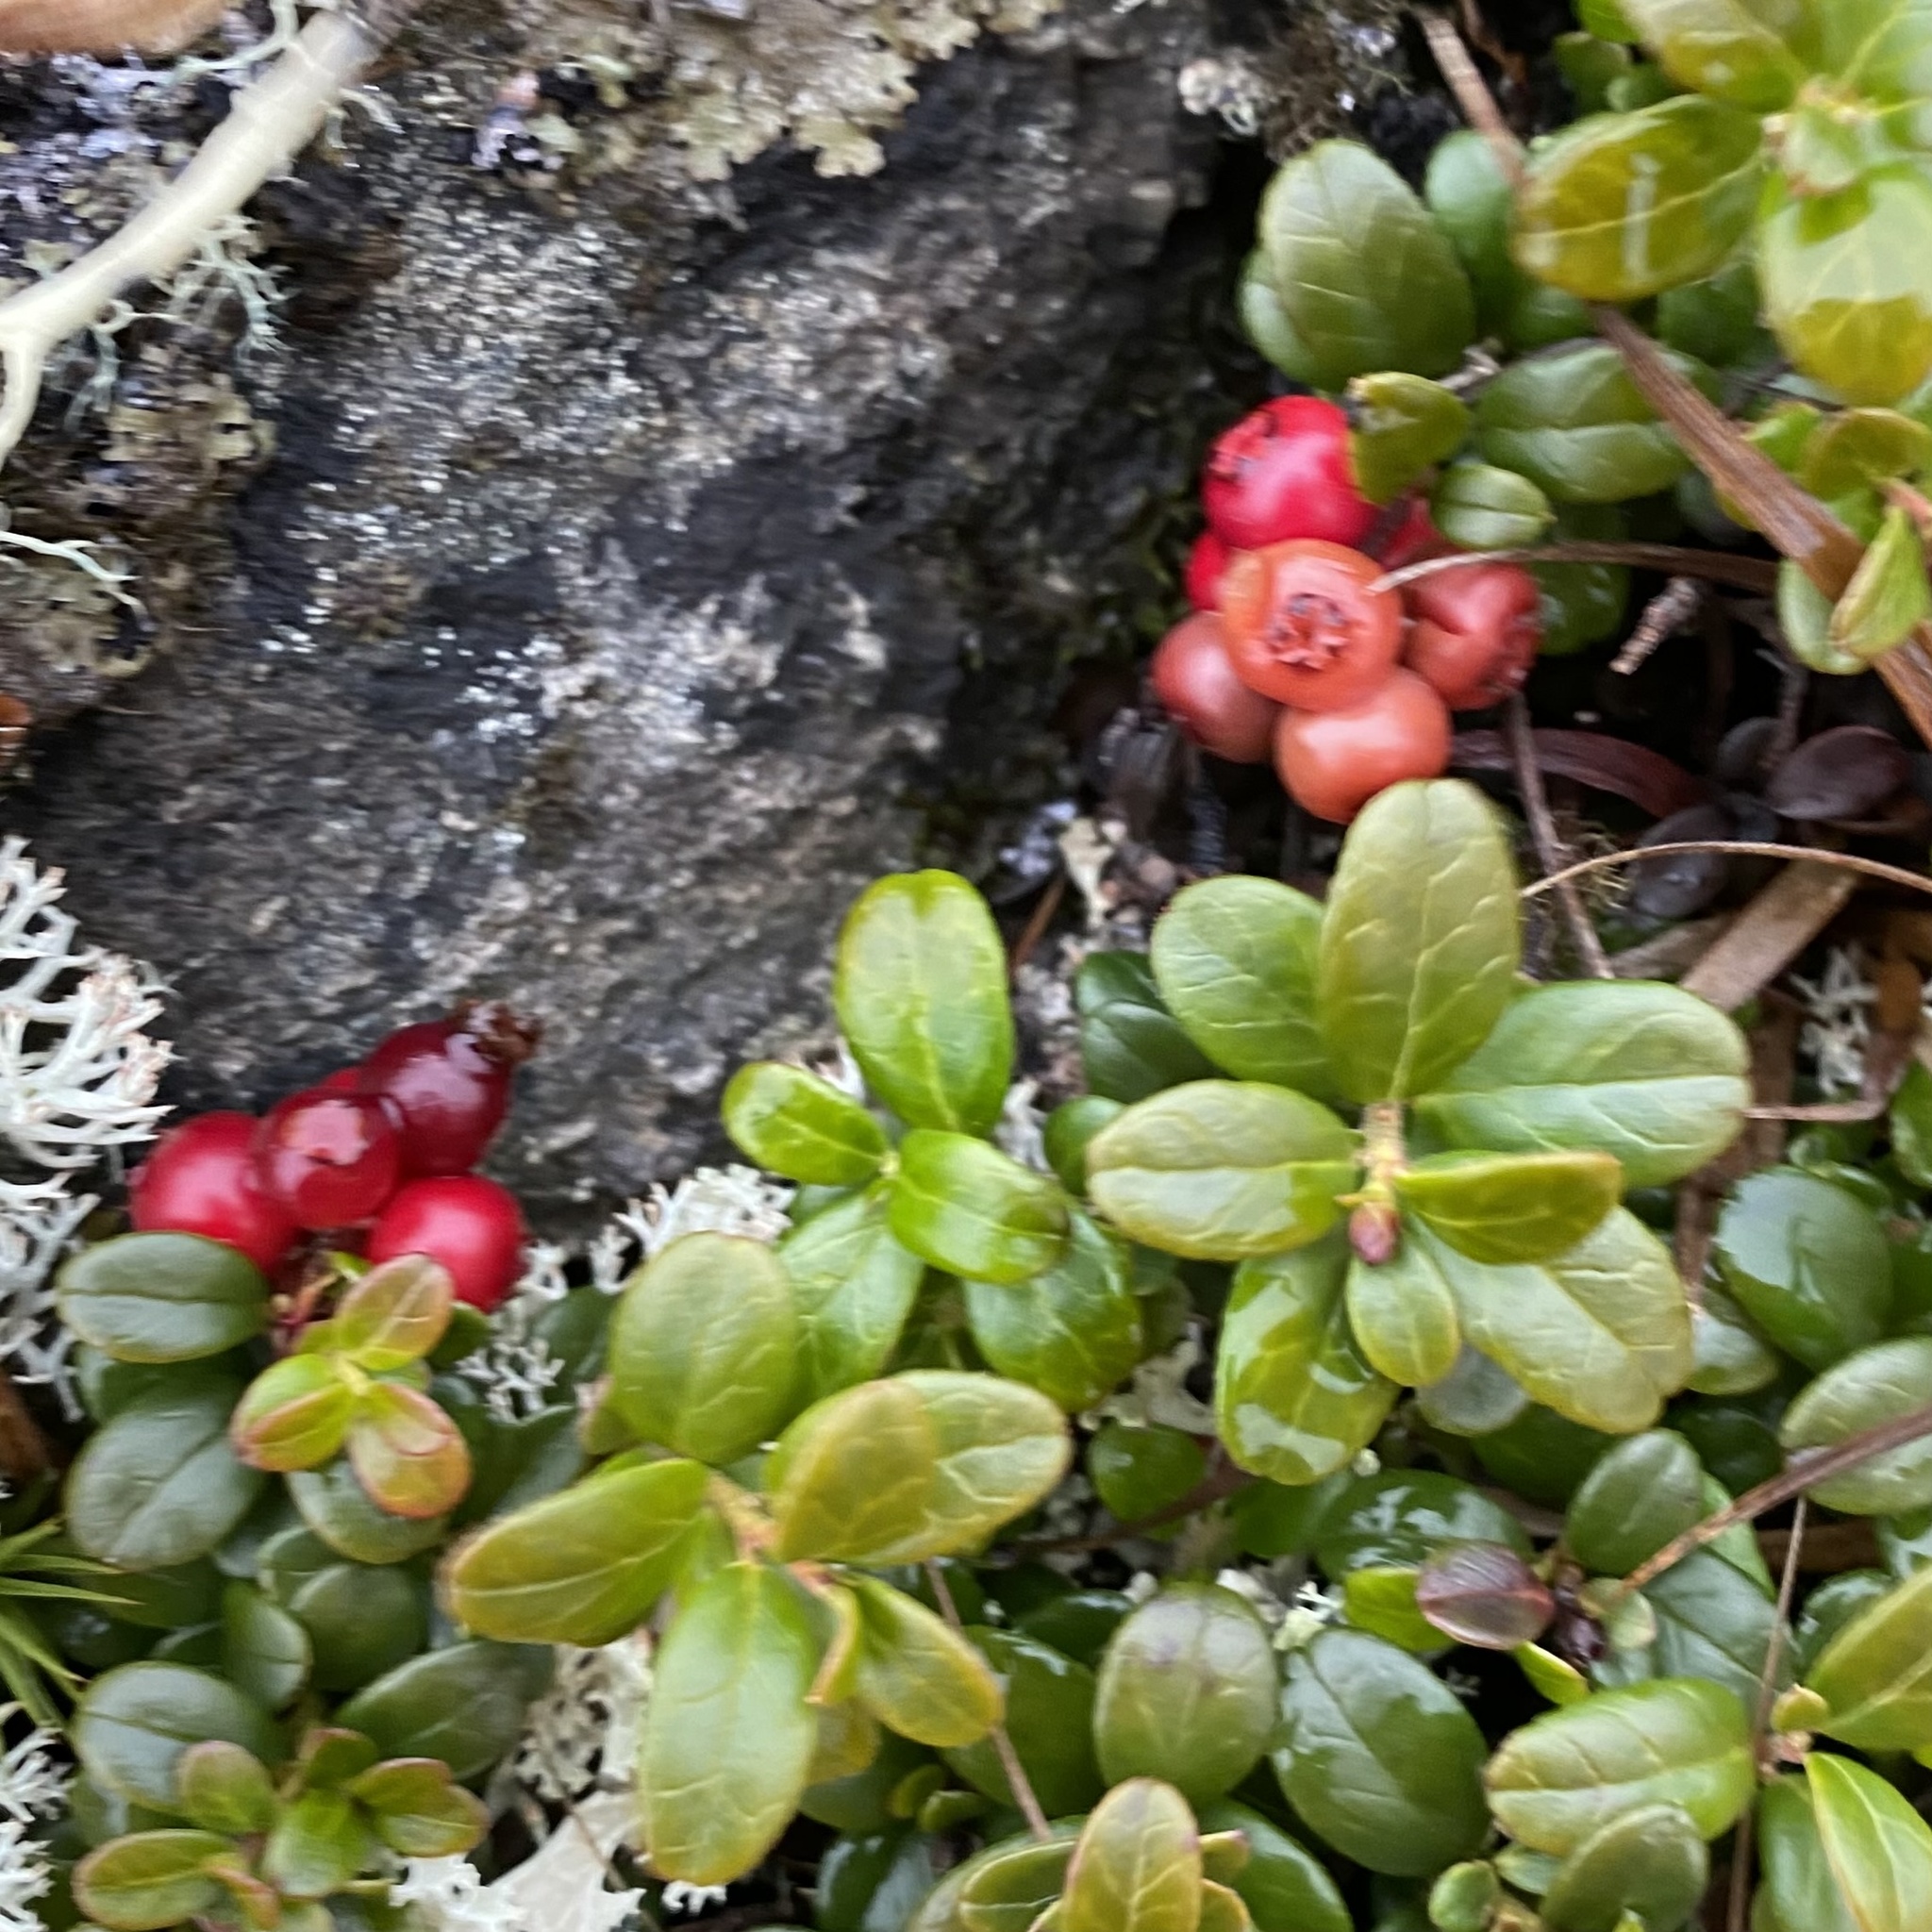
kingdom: Plantae
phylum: Tracheophyta
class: Magnoliopsida
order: Ericales
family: Ericaceae
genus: Vaccinium
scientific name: Vaccinium vitis-idaea
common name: Cowberry
